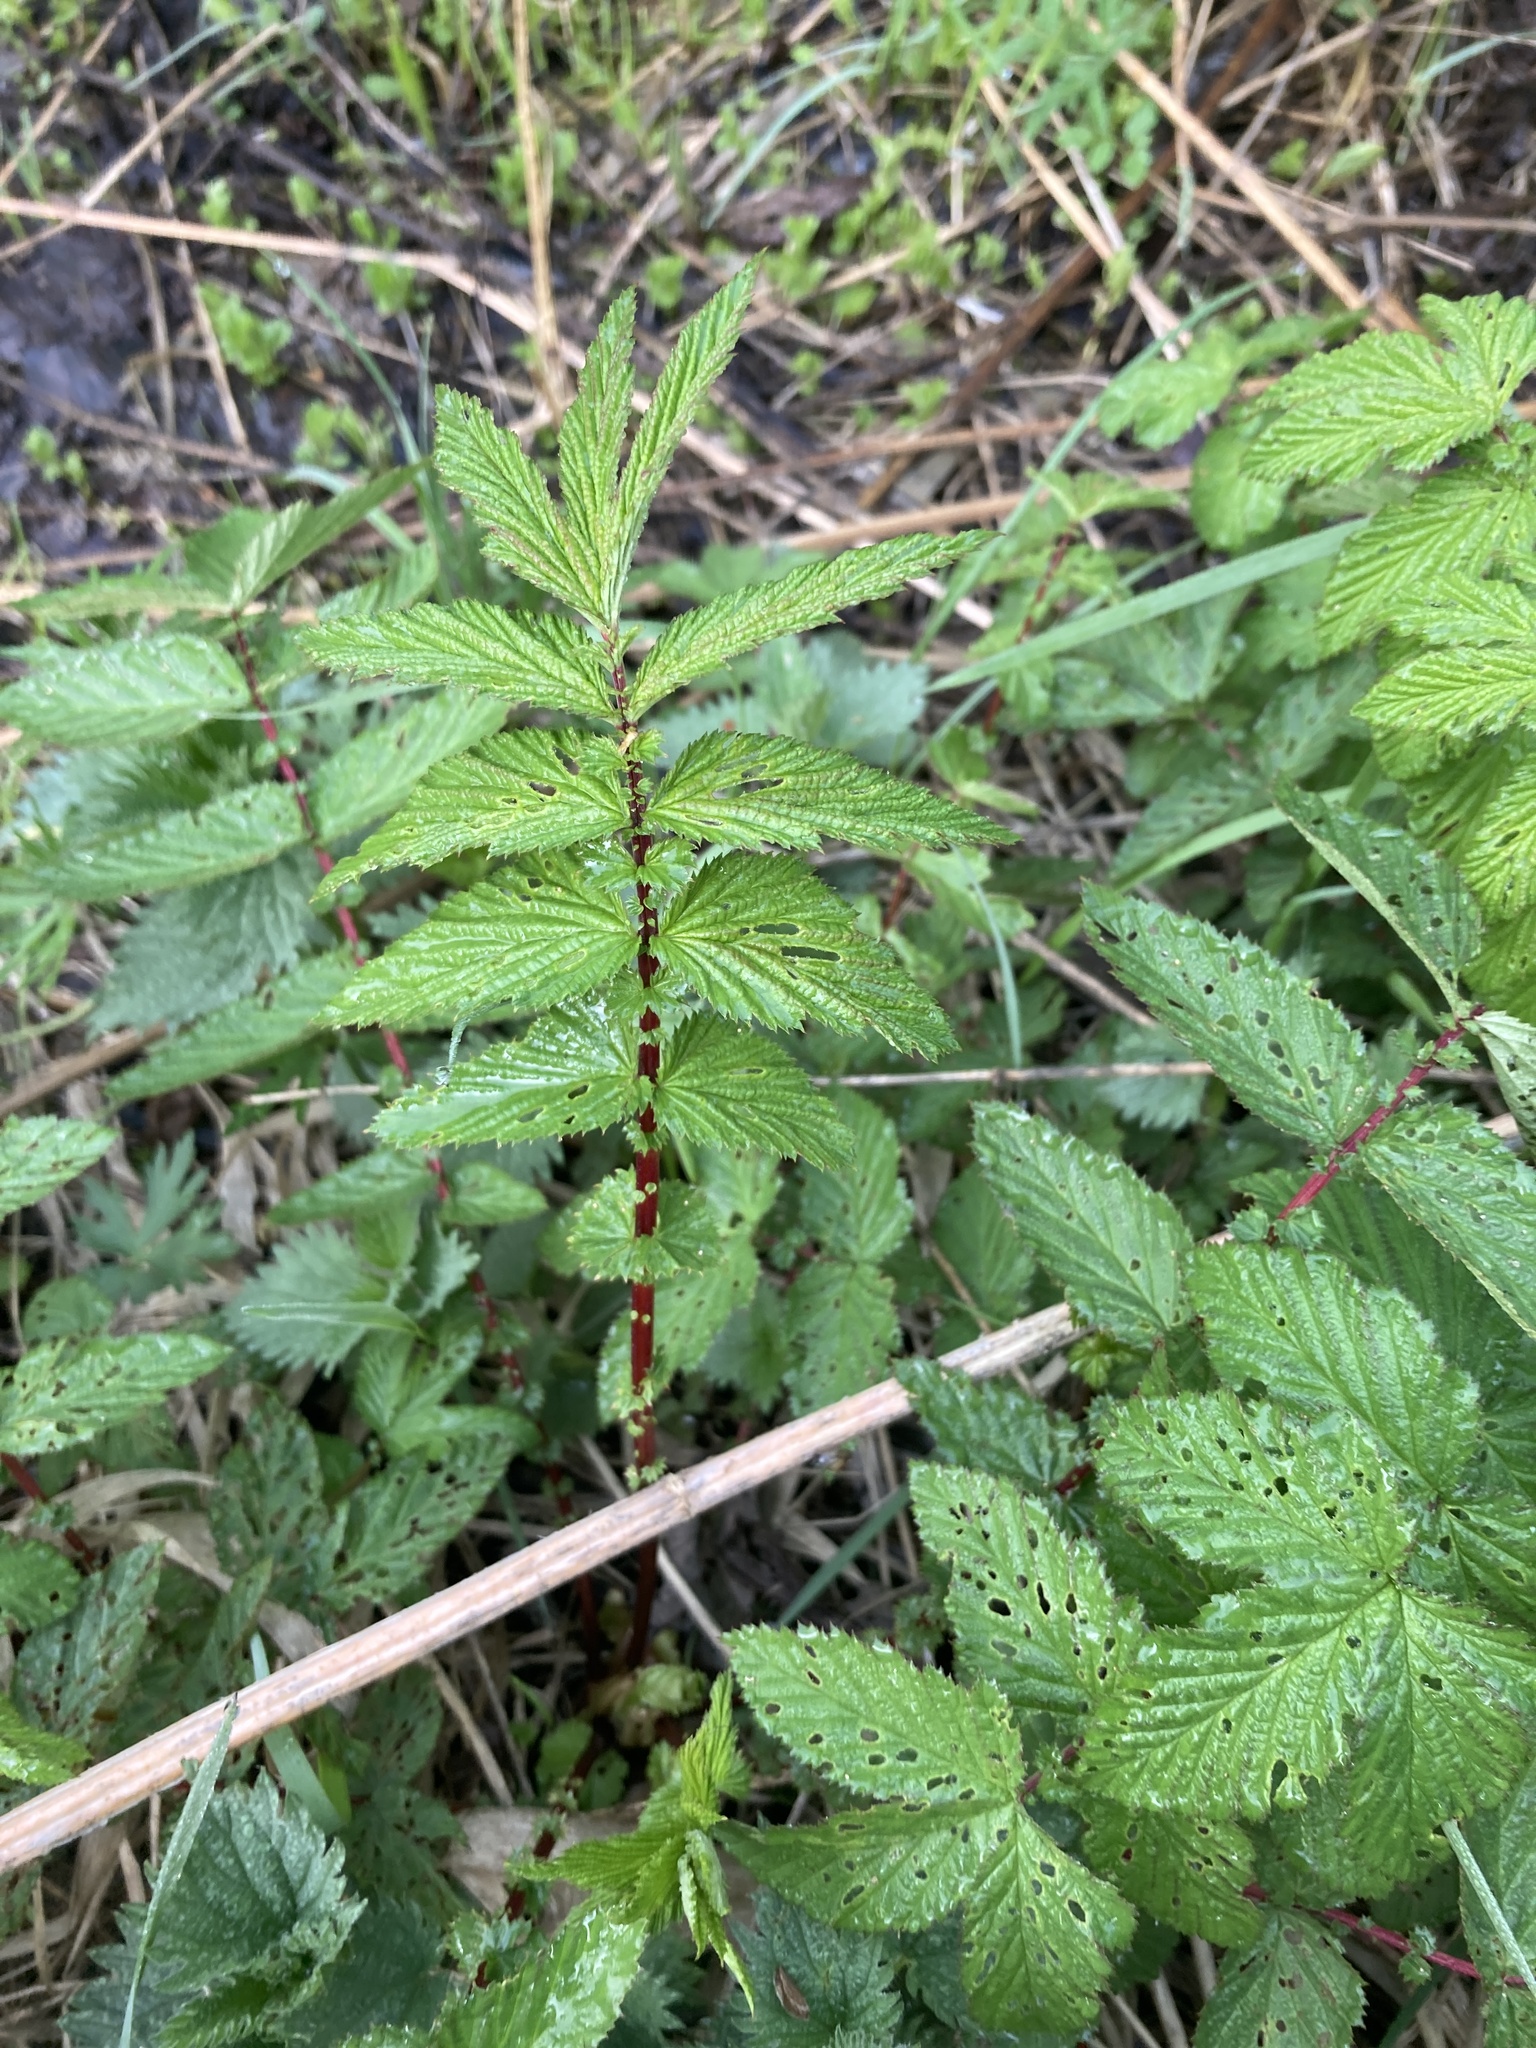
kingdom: Plantae
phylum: Tracheophyta
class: Magnoliopsida
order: Rosales
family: Rosaceae
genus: Filipendula
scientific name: Filipendula ulmaria
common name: Meadowsweet
